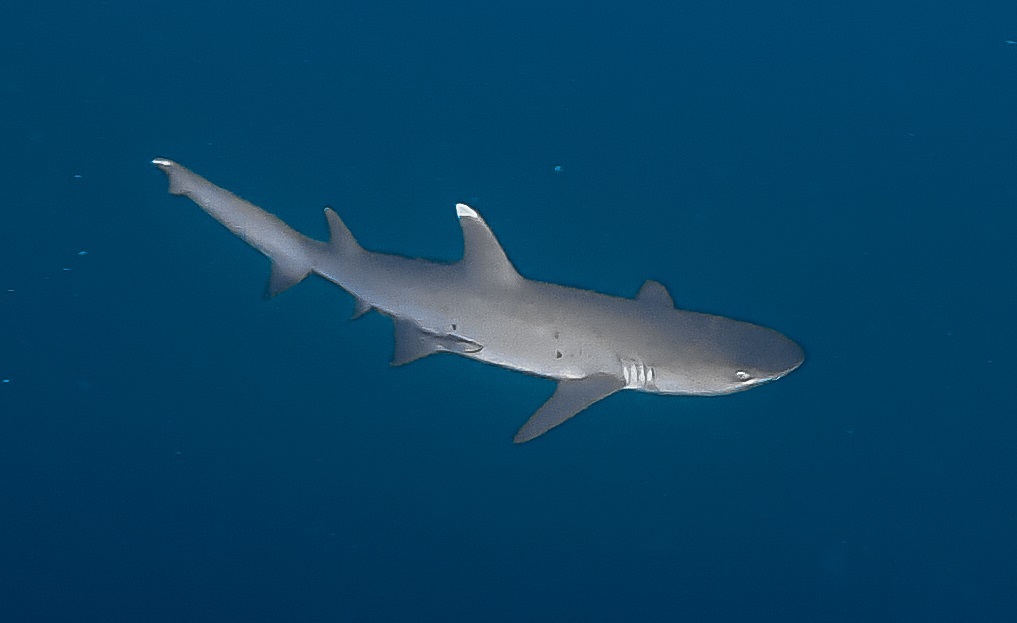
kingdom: Animalia
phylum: Chordata
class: Elasmobranchii
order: Carcharhiniformes
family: Carcharhinidae
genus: Triaenodon
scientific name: Triaenodon obesus
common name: Whitetip reef shark
